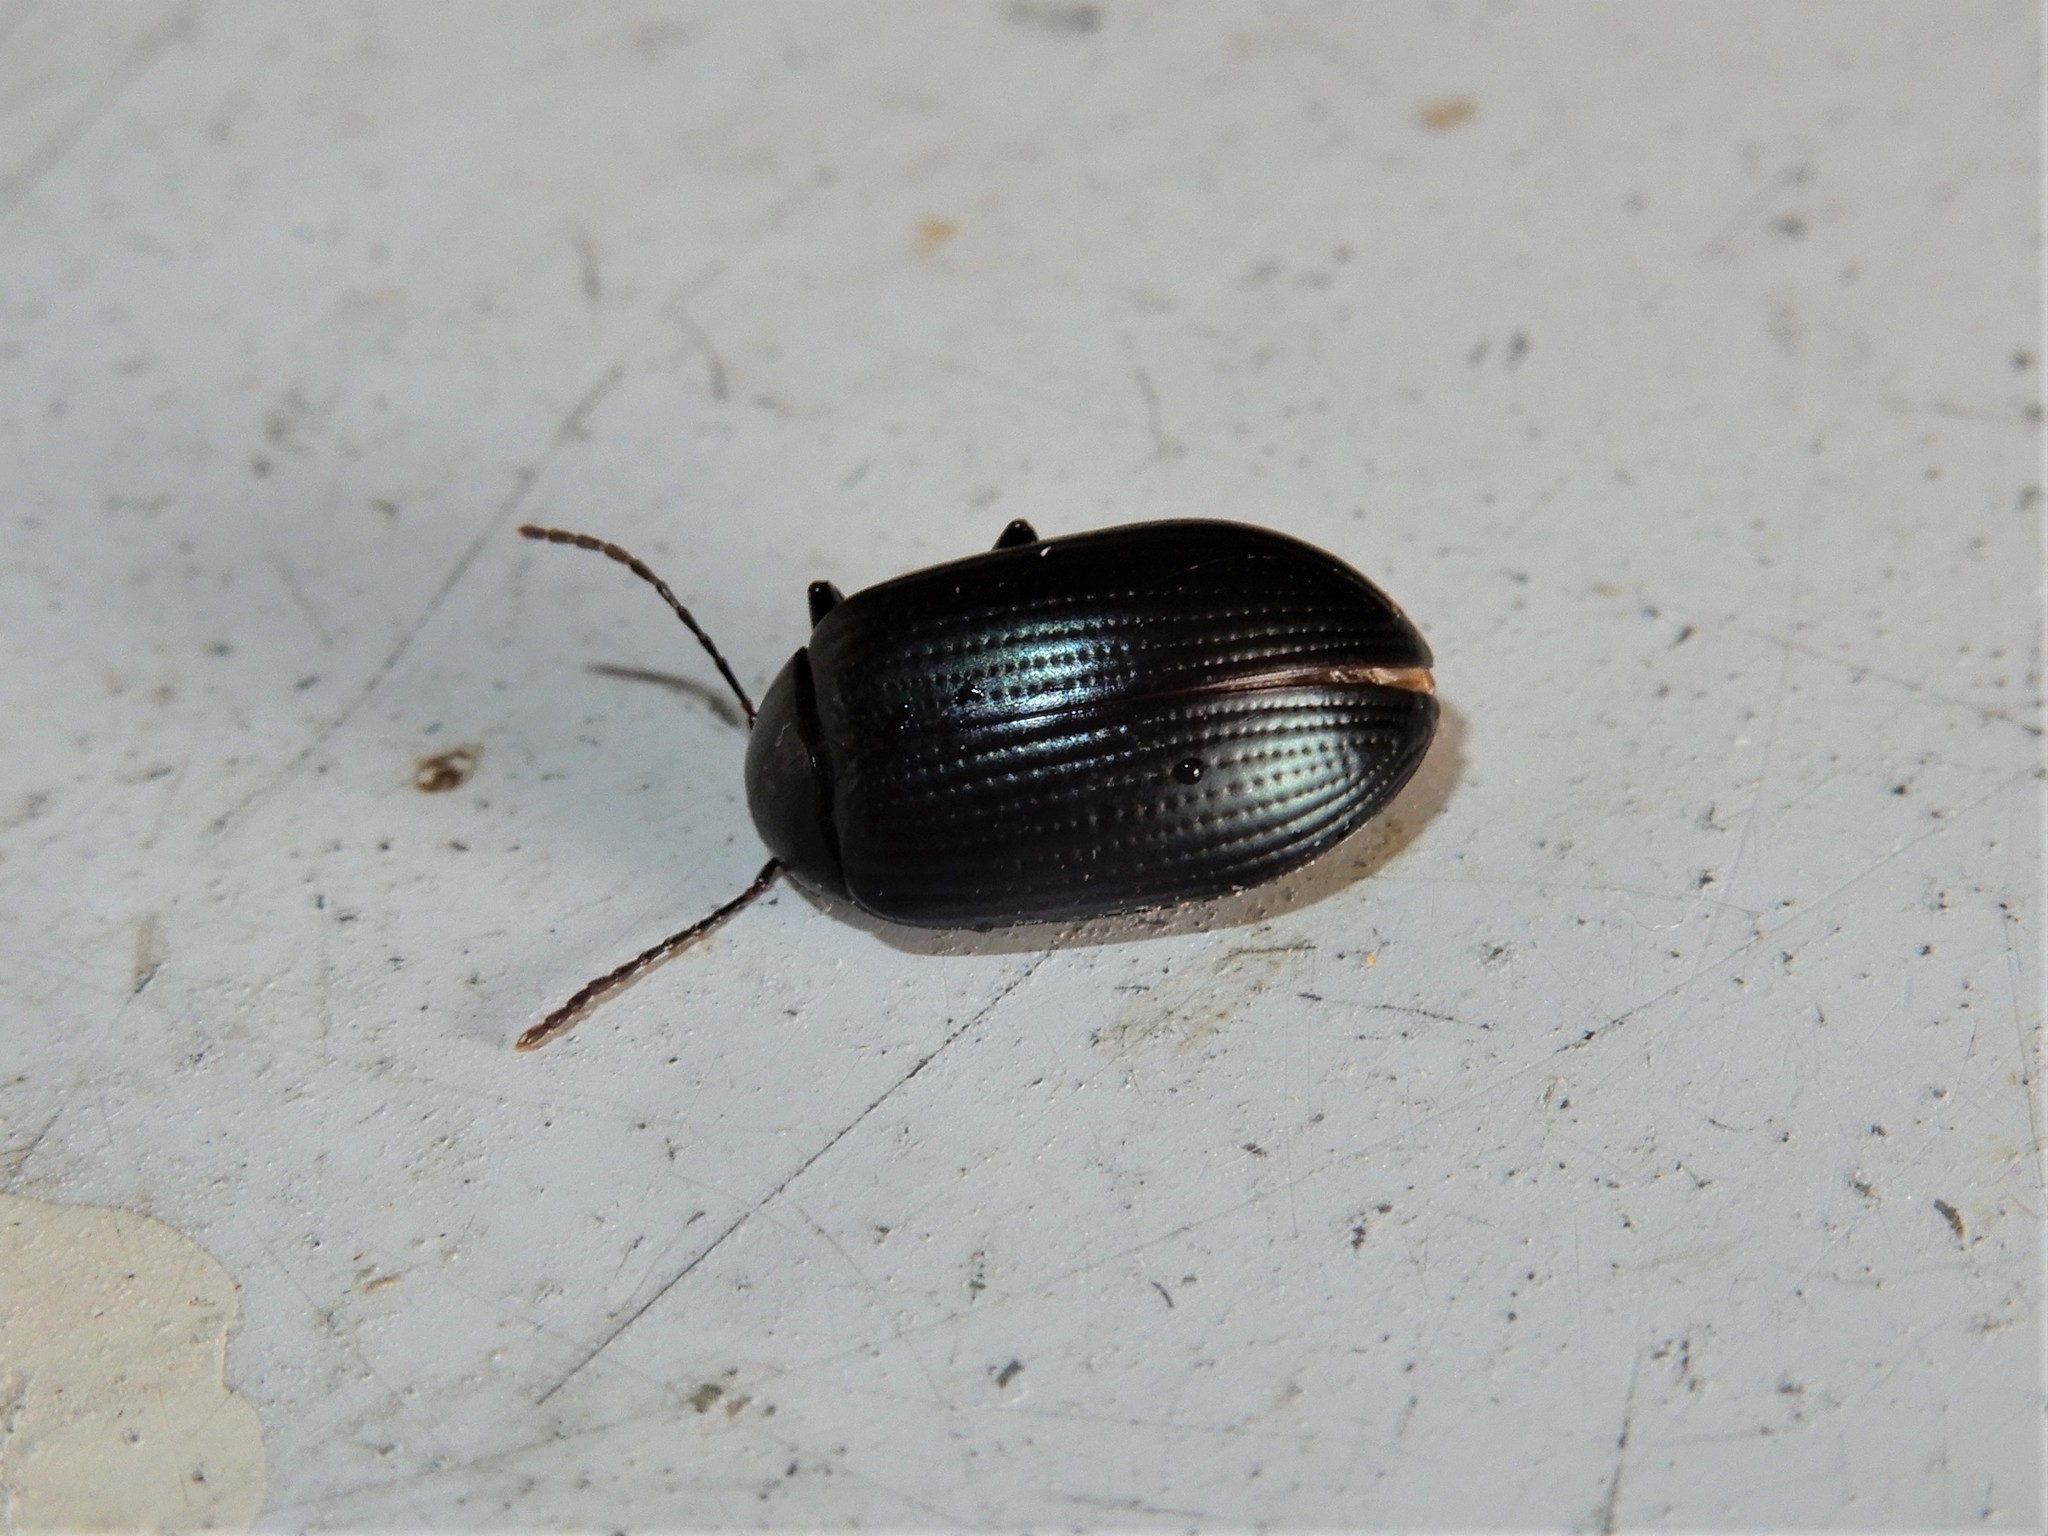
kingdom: Animalia
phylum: Arthropoda
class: Insecta
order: Coleoptera
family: Tenebrionidae
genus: Amarygmus
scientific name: Amarygmus
